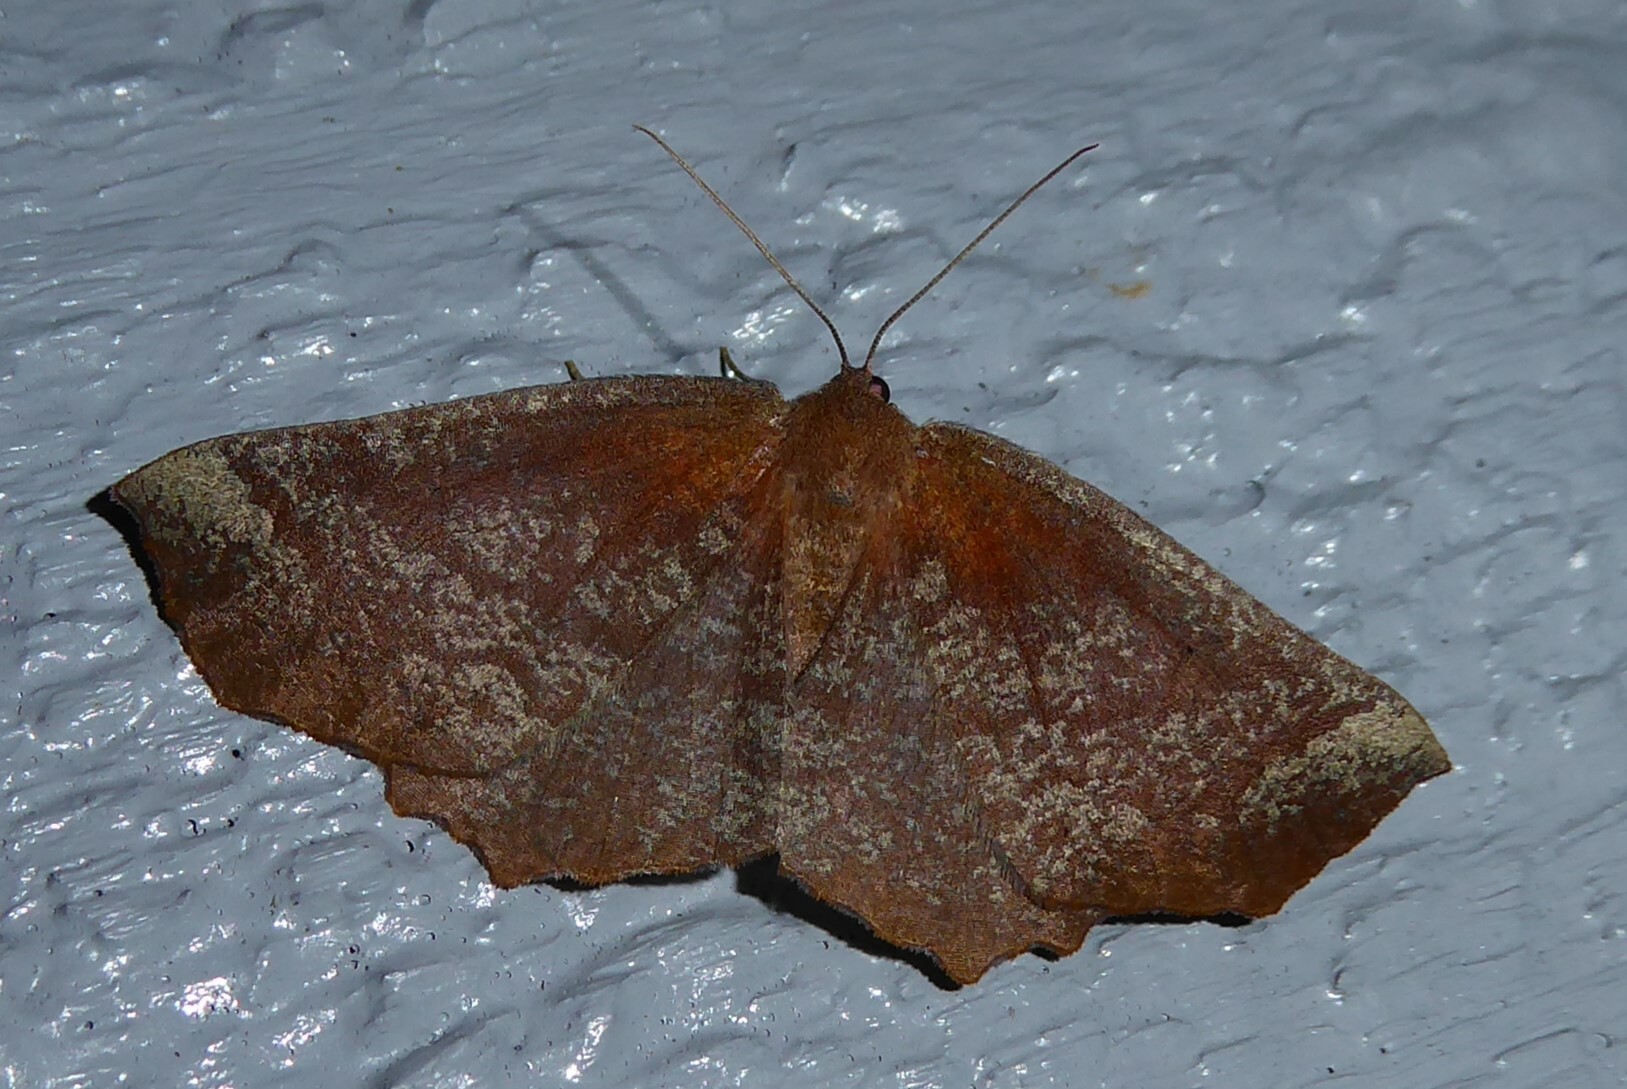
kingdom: Animalia
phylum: Arthropoda
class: Insecta
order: Lepidoptera
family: Geometridae
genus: Xyridacma
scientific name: Xyridacma ustaria
